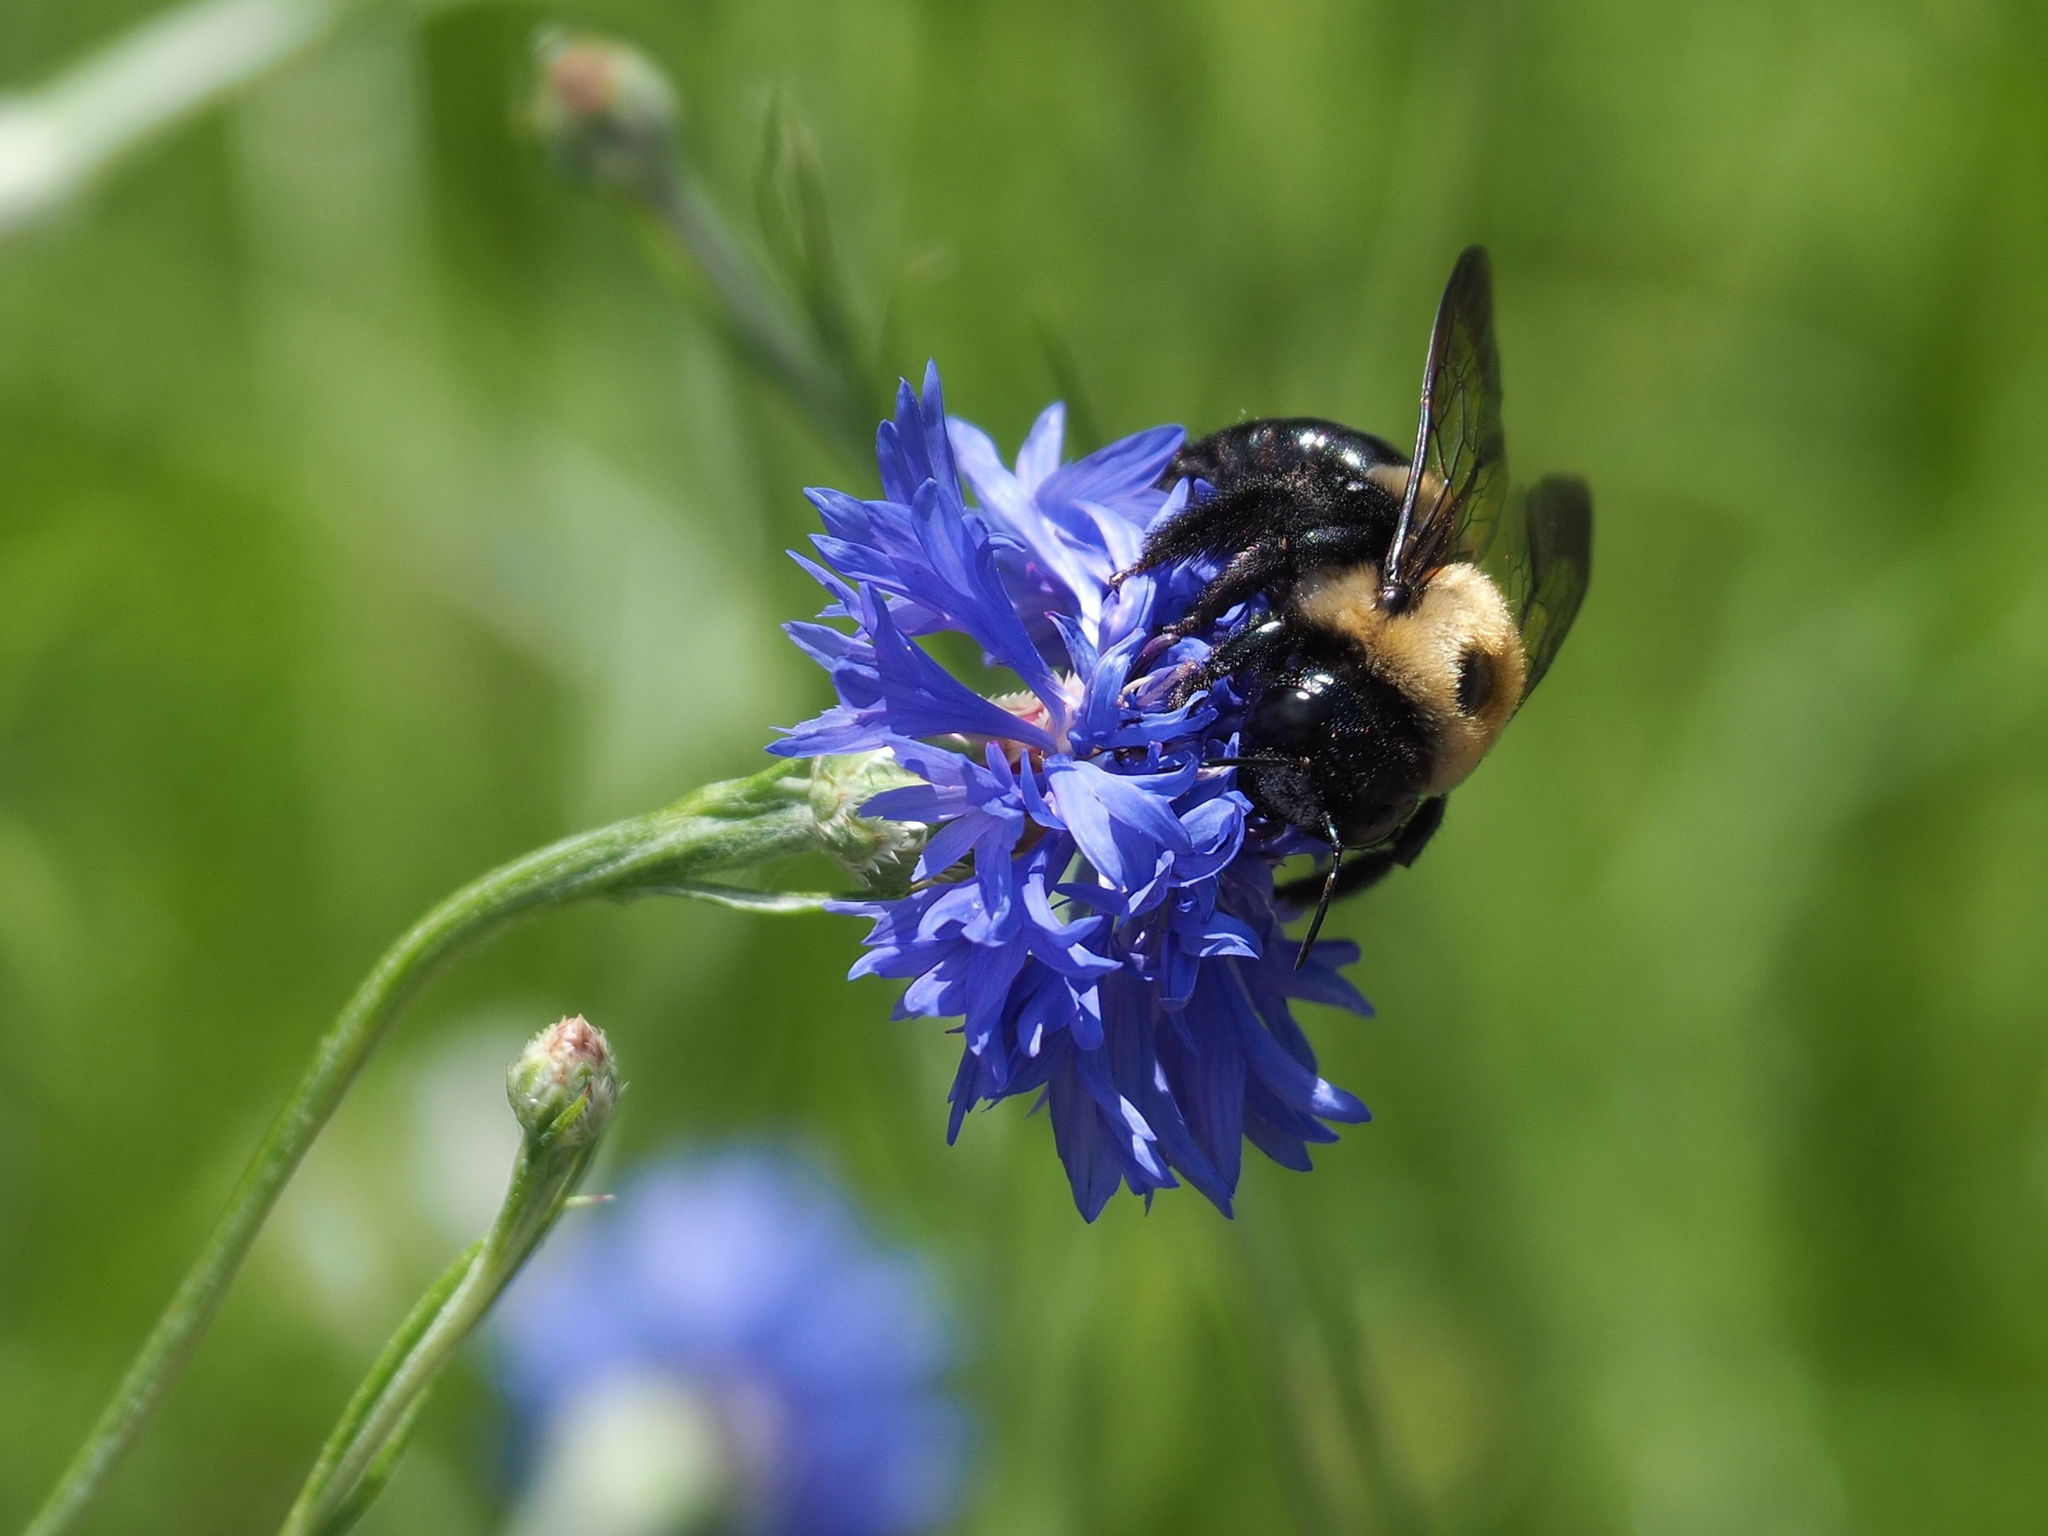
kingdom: Animalia
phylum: Arthropoda
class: Insecta
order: Hymenoptera
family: Apidae
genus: Xylocopa
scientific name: Xylocopa virginica
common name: Carpenter bee
